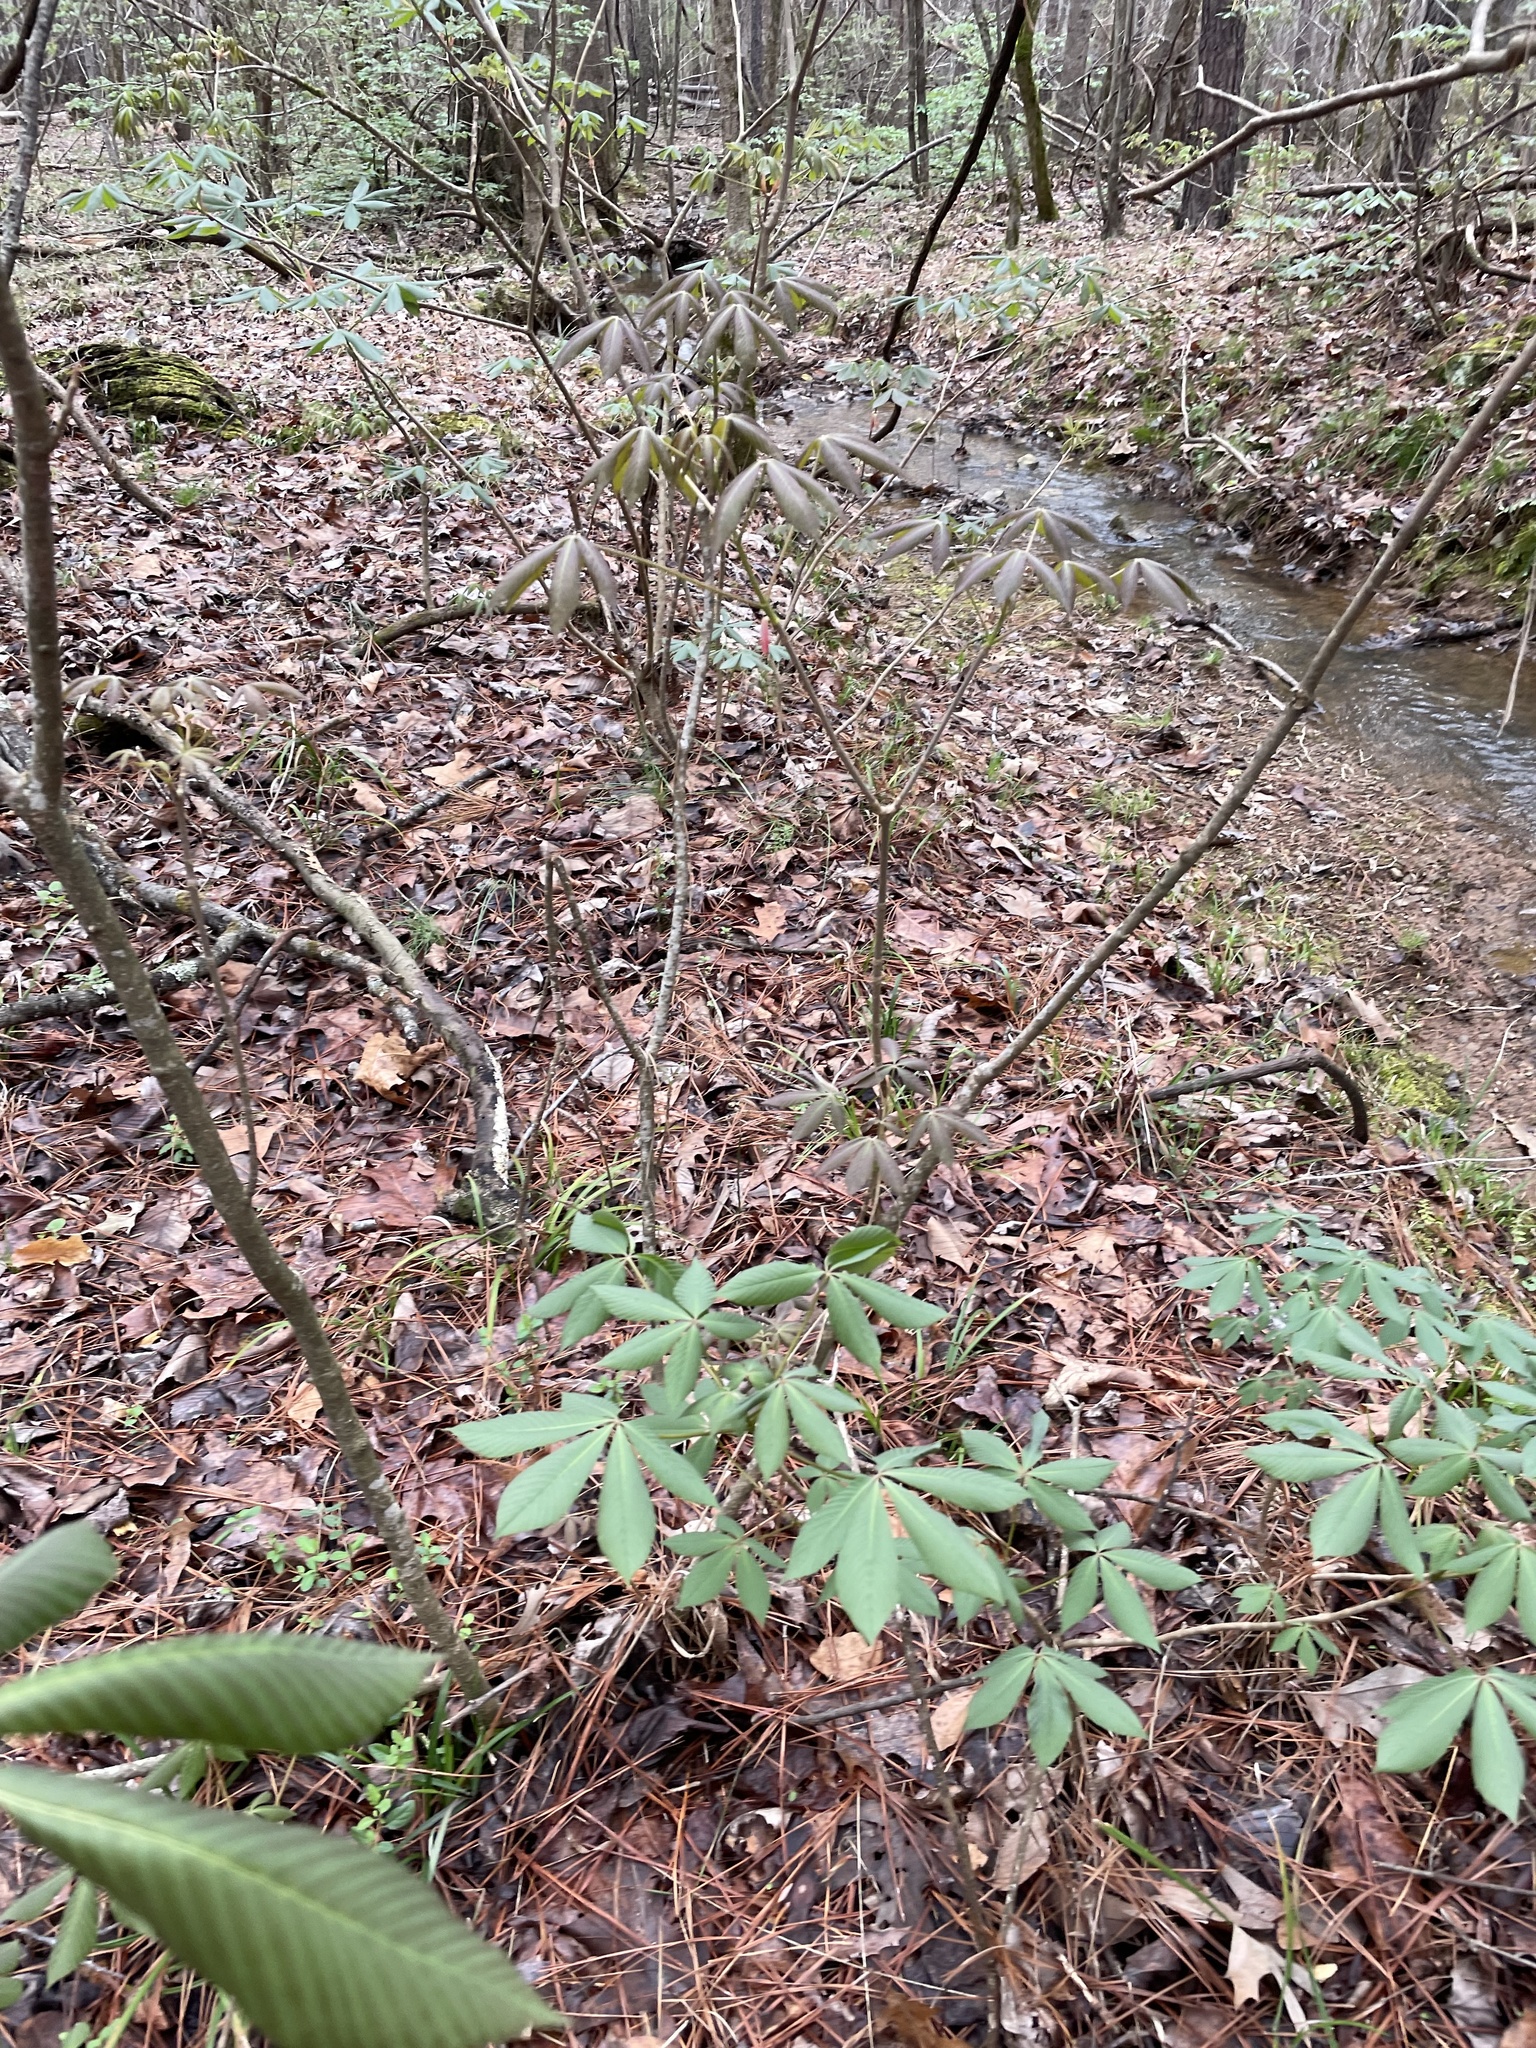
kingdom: Plantae
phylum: Tracheophyta
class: Magnoliopsida
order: Sapindales
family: Sapindaceae
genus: Aesculus
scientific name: Aesculus sylvatica
